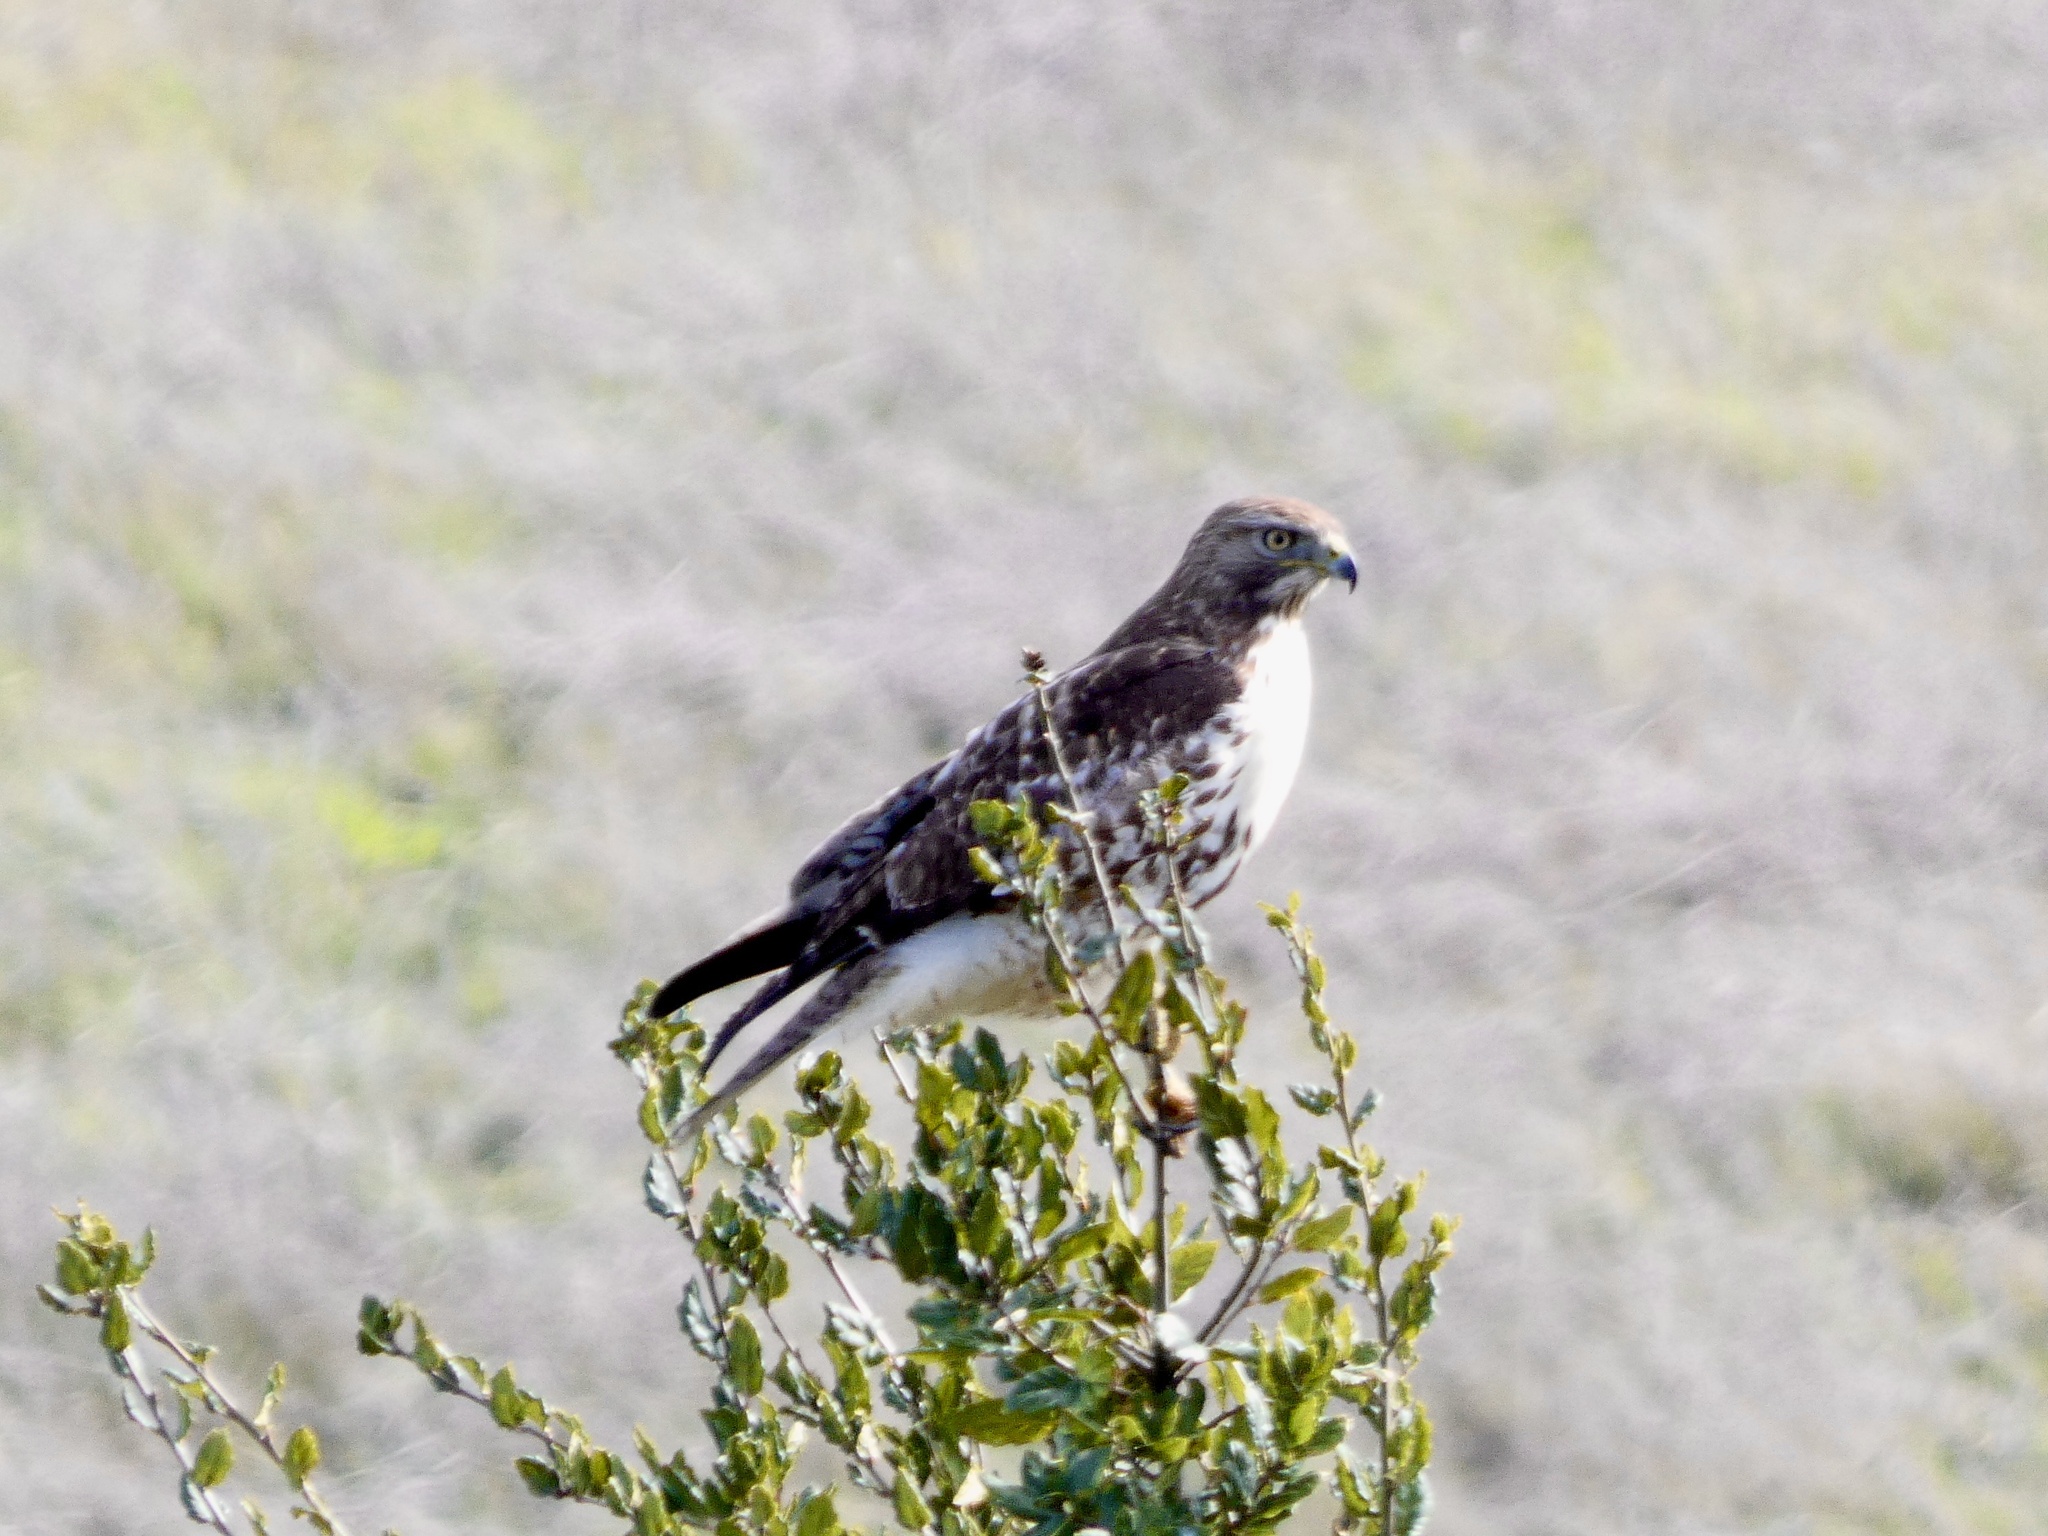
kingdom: Animalia
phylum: Chordata
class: Aves
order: Accipitriformes
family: Accipitridae
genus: Buteo
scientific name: Buteo jamaicensis
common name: Red-tailed hawk
